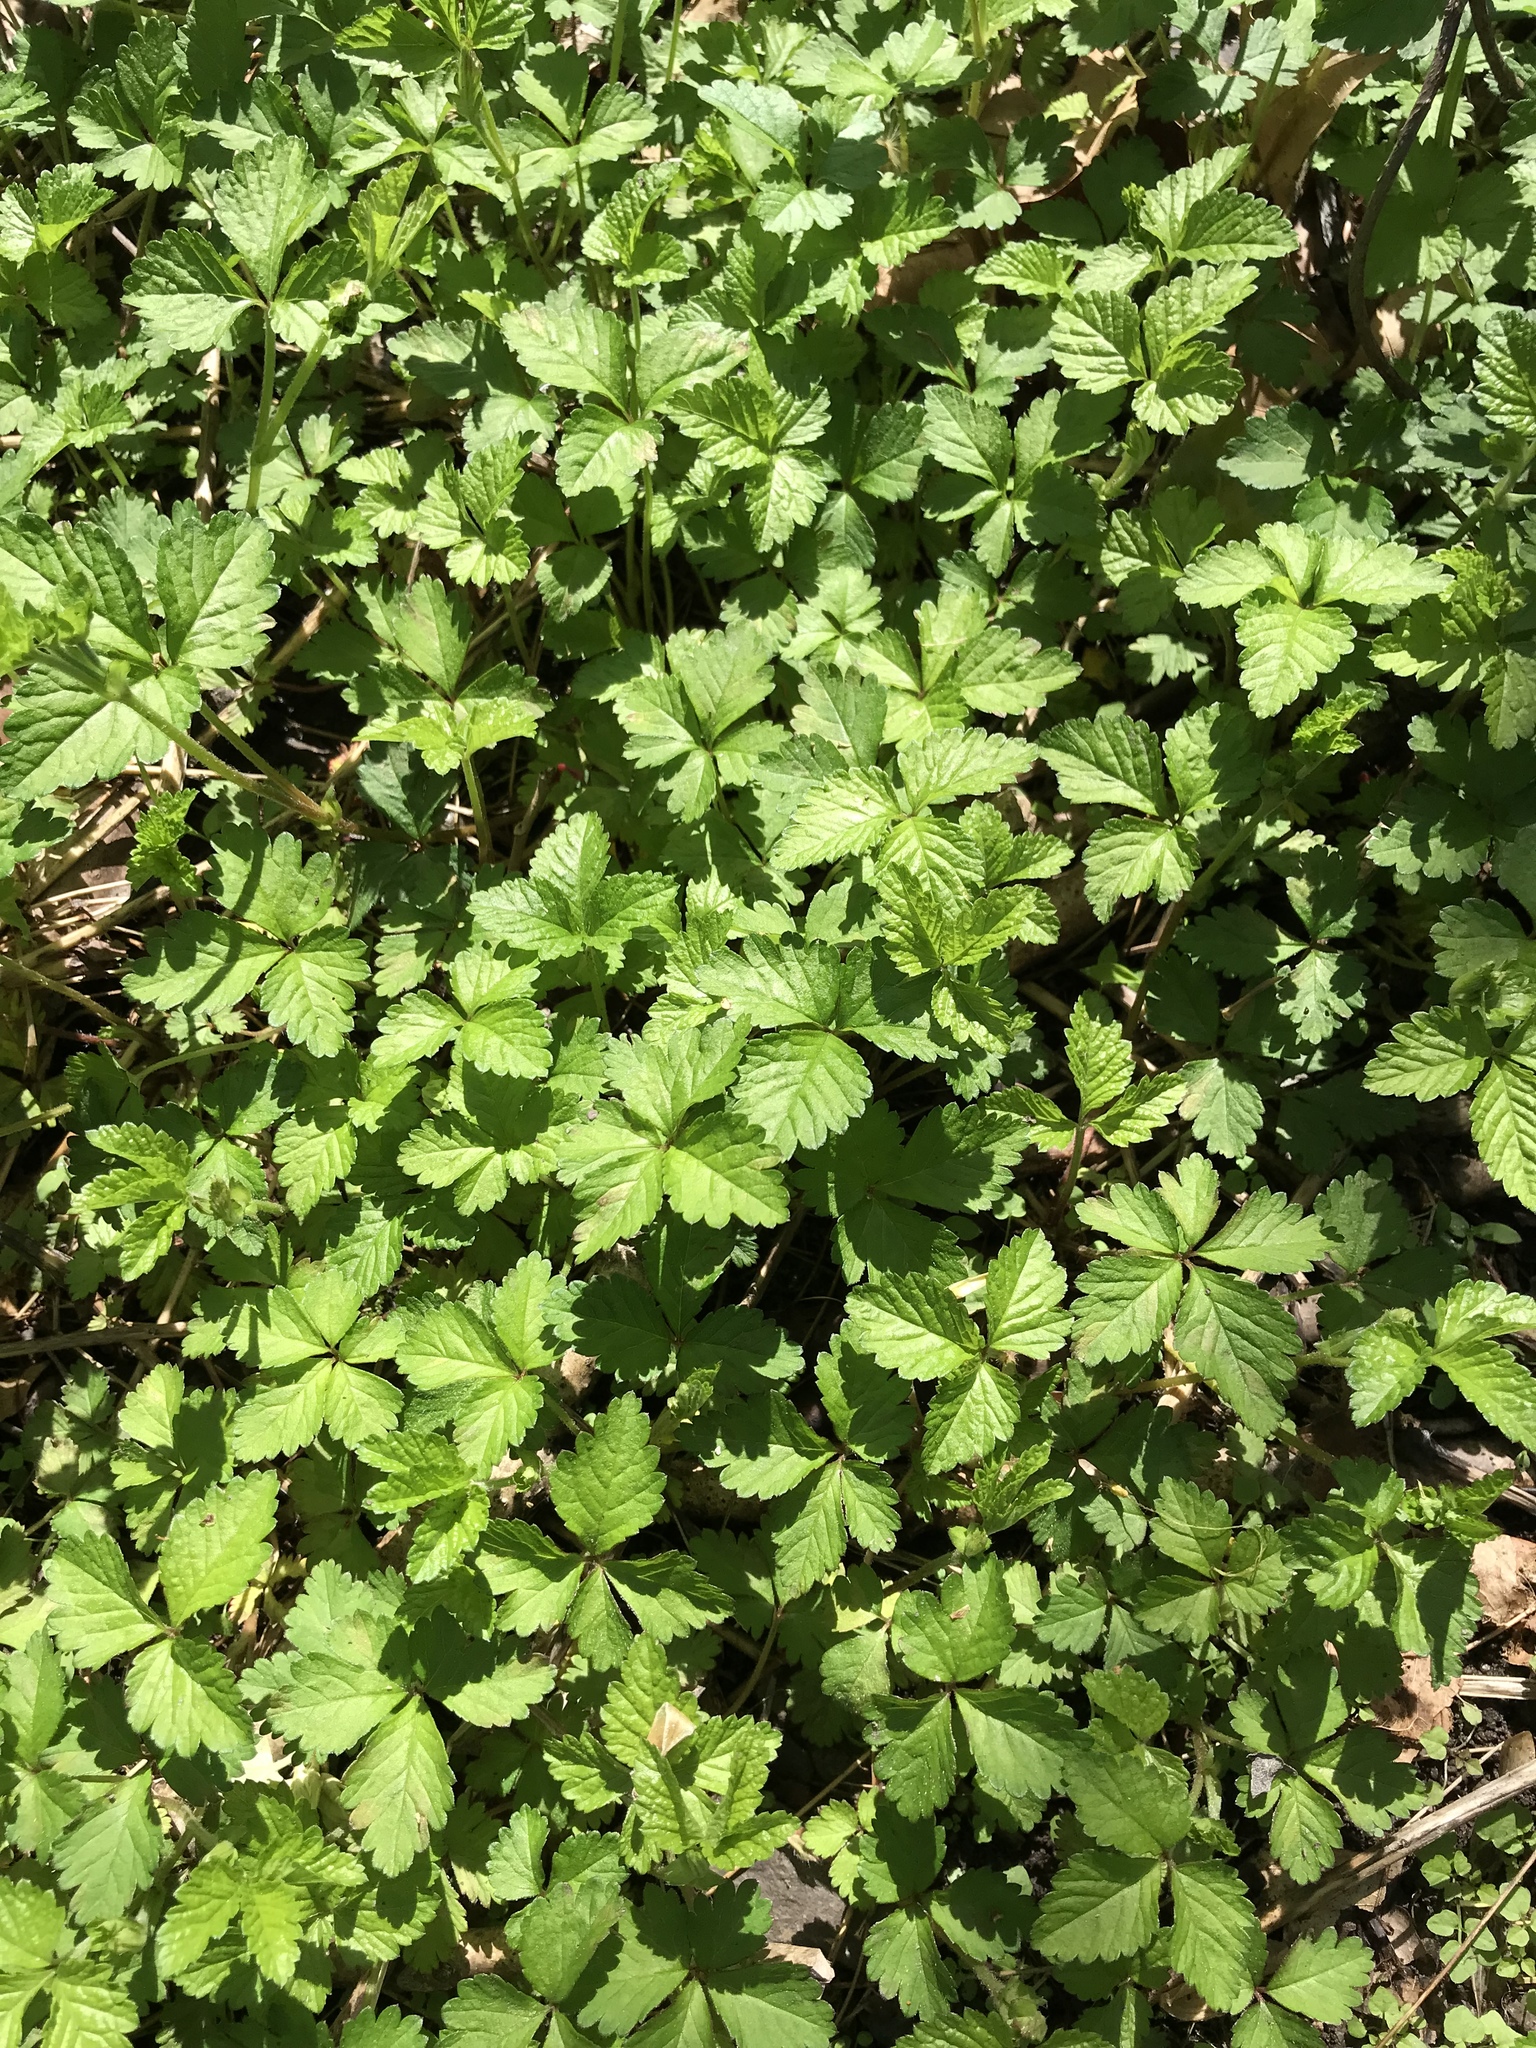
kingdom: Plantae
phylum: Tracheophyta
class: Magnoliopsida
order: Rosales
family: Rosaceae
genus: Potentilla
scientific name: Potentilla indica
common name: Yellow-flowered strawberry
